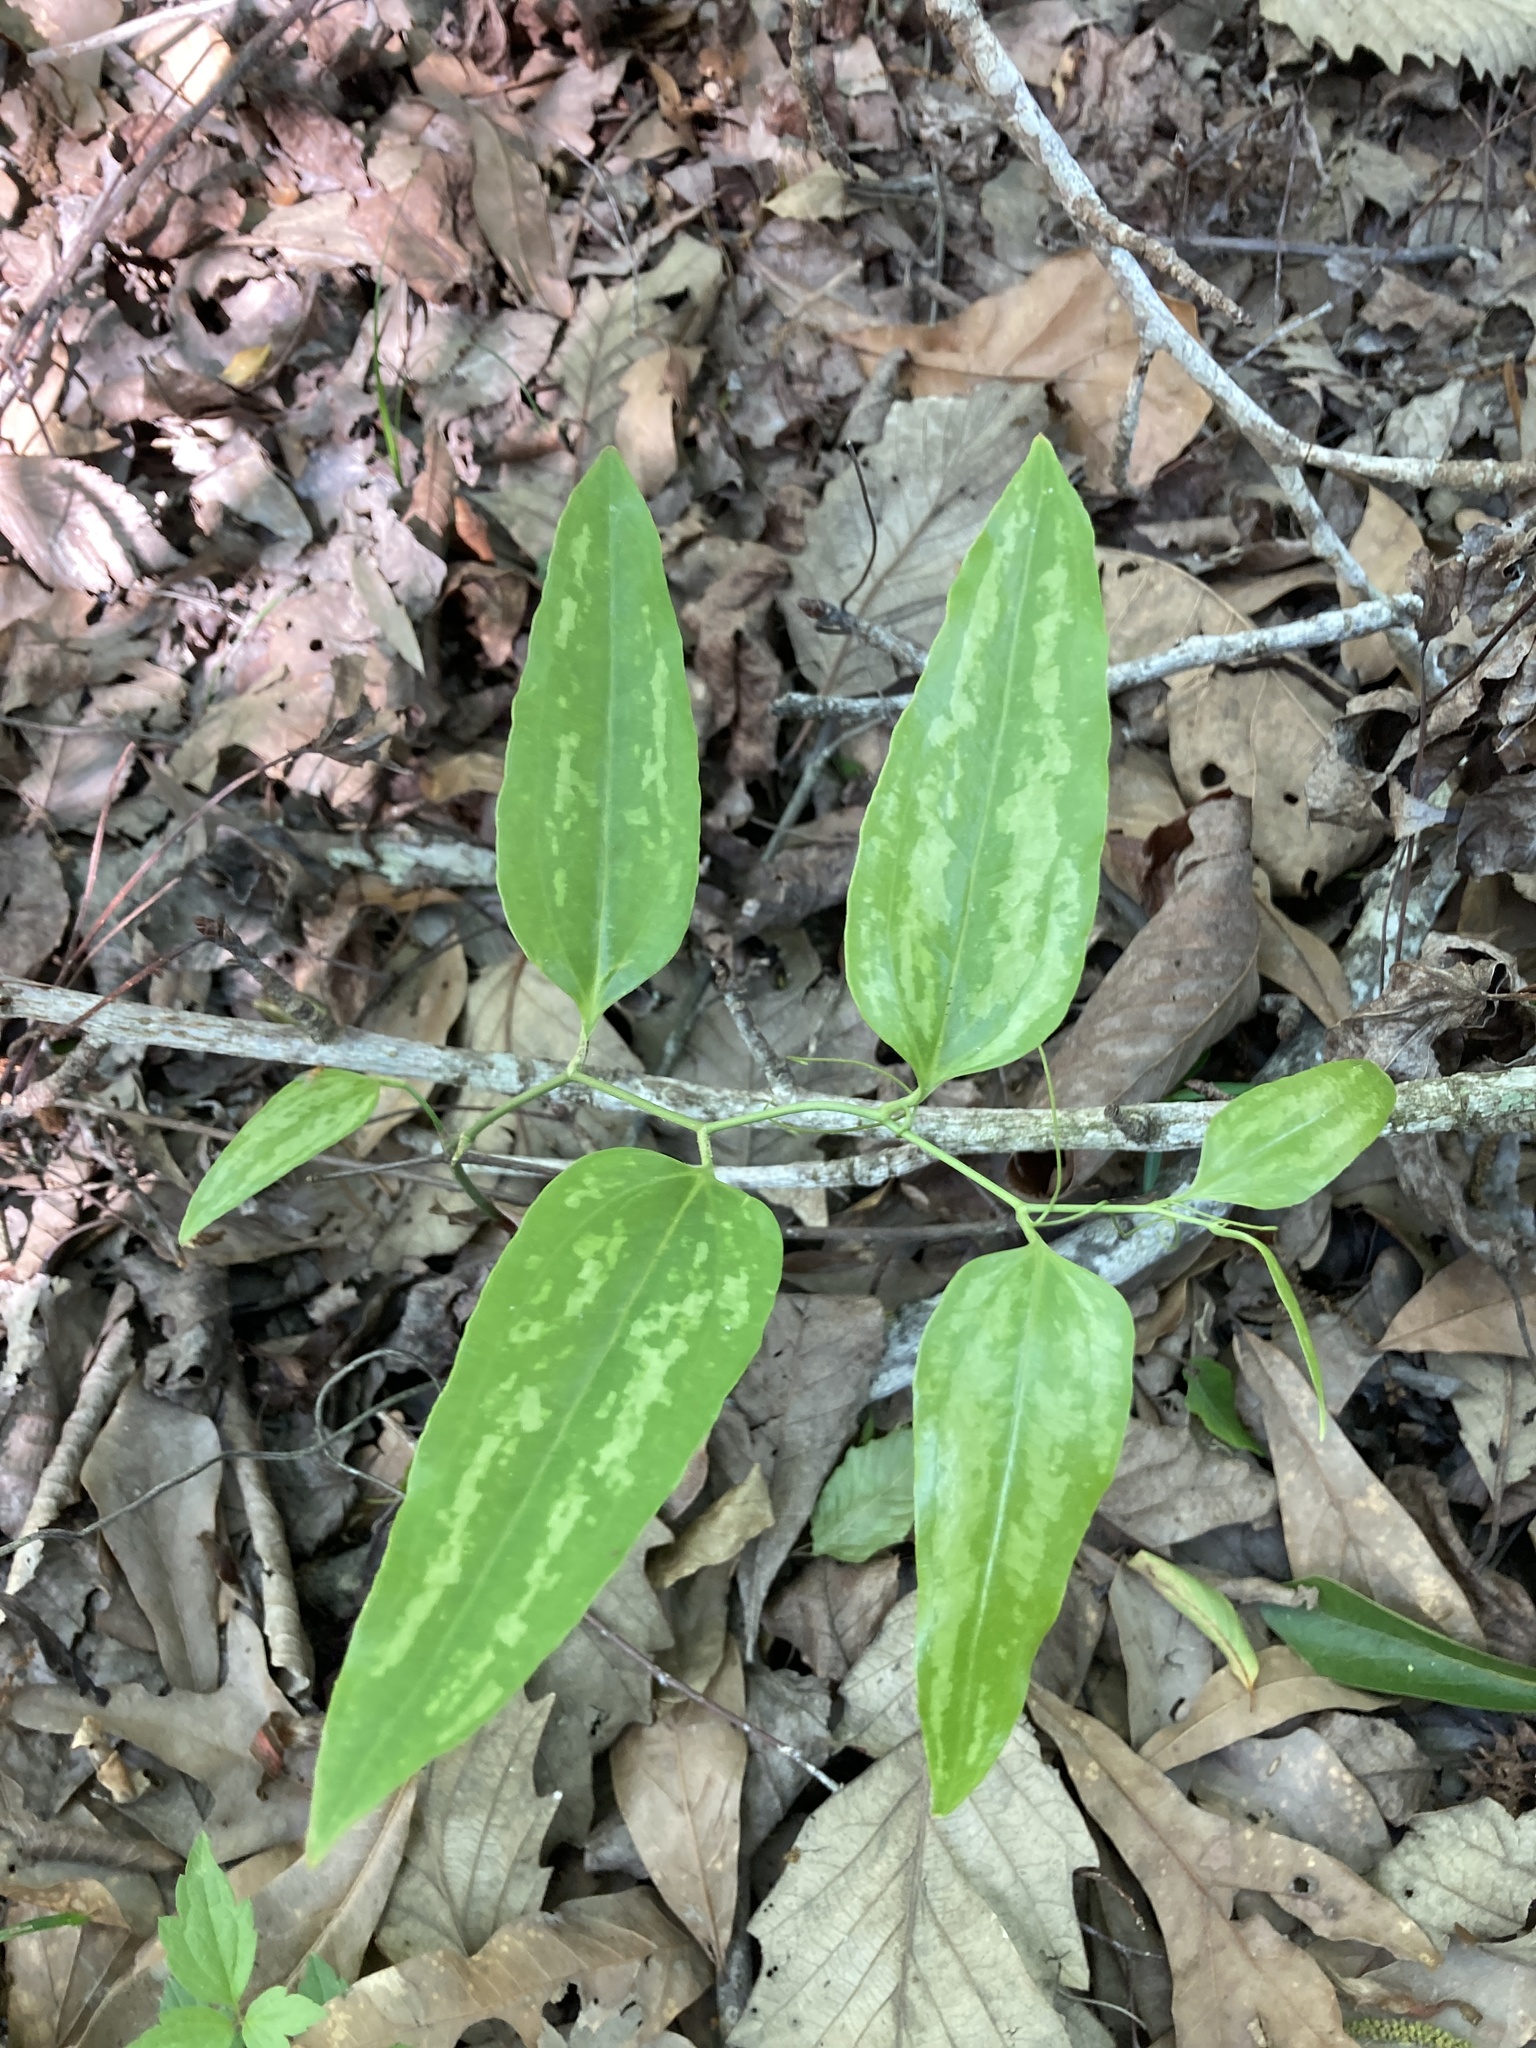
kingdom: Plantae
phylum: Tracheophyta
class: Liliopsida
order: Liliales
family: Smilacaceae
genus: Smilax
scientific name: Smilax maritima
